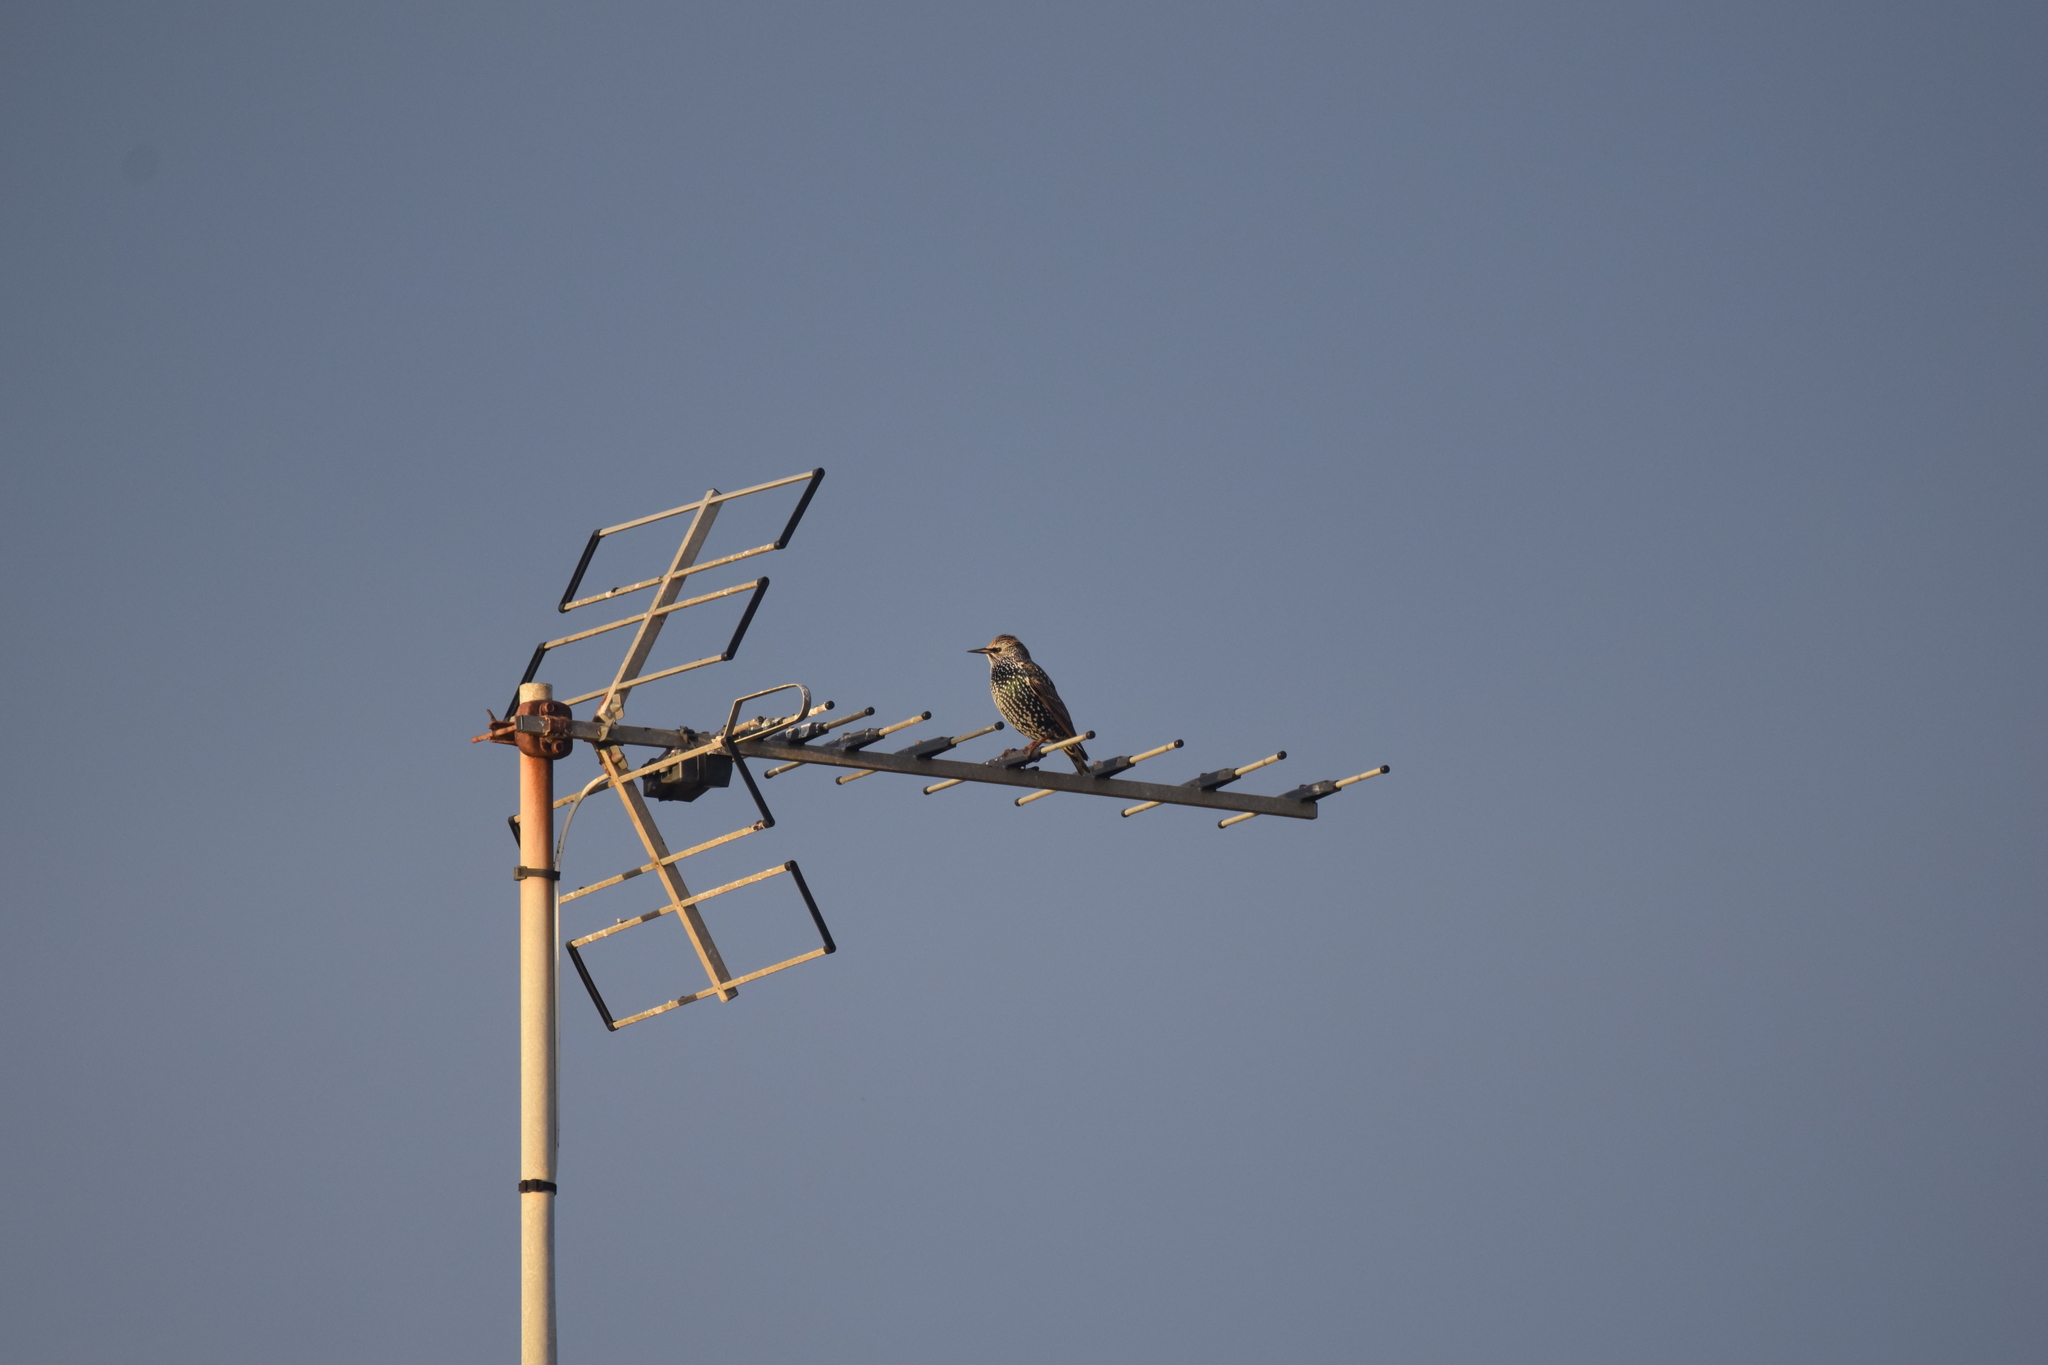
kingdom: Animalia
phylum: Chordata
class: Aves
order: Passeriformes
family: Sturnidae
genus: Sturnus
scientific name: Sturnus vulgaris
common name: Common starling
